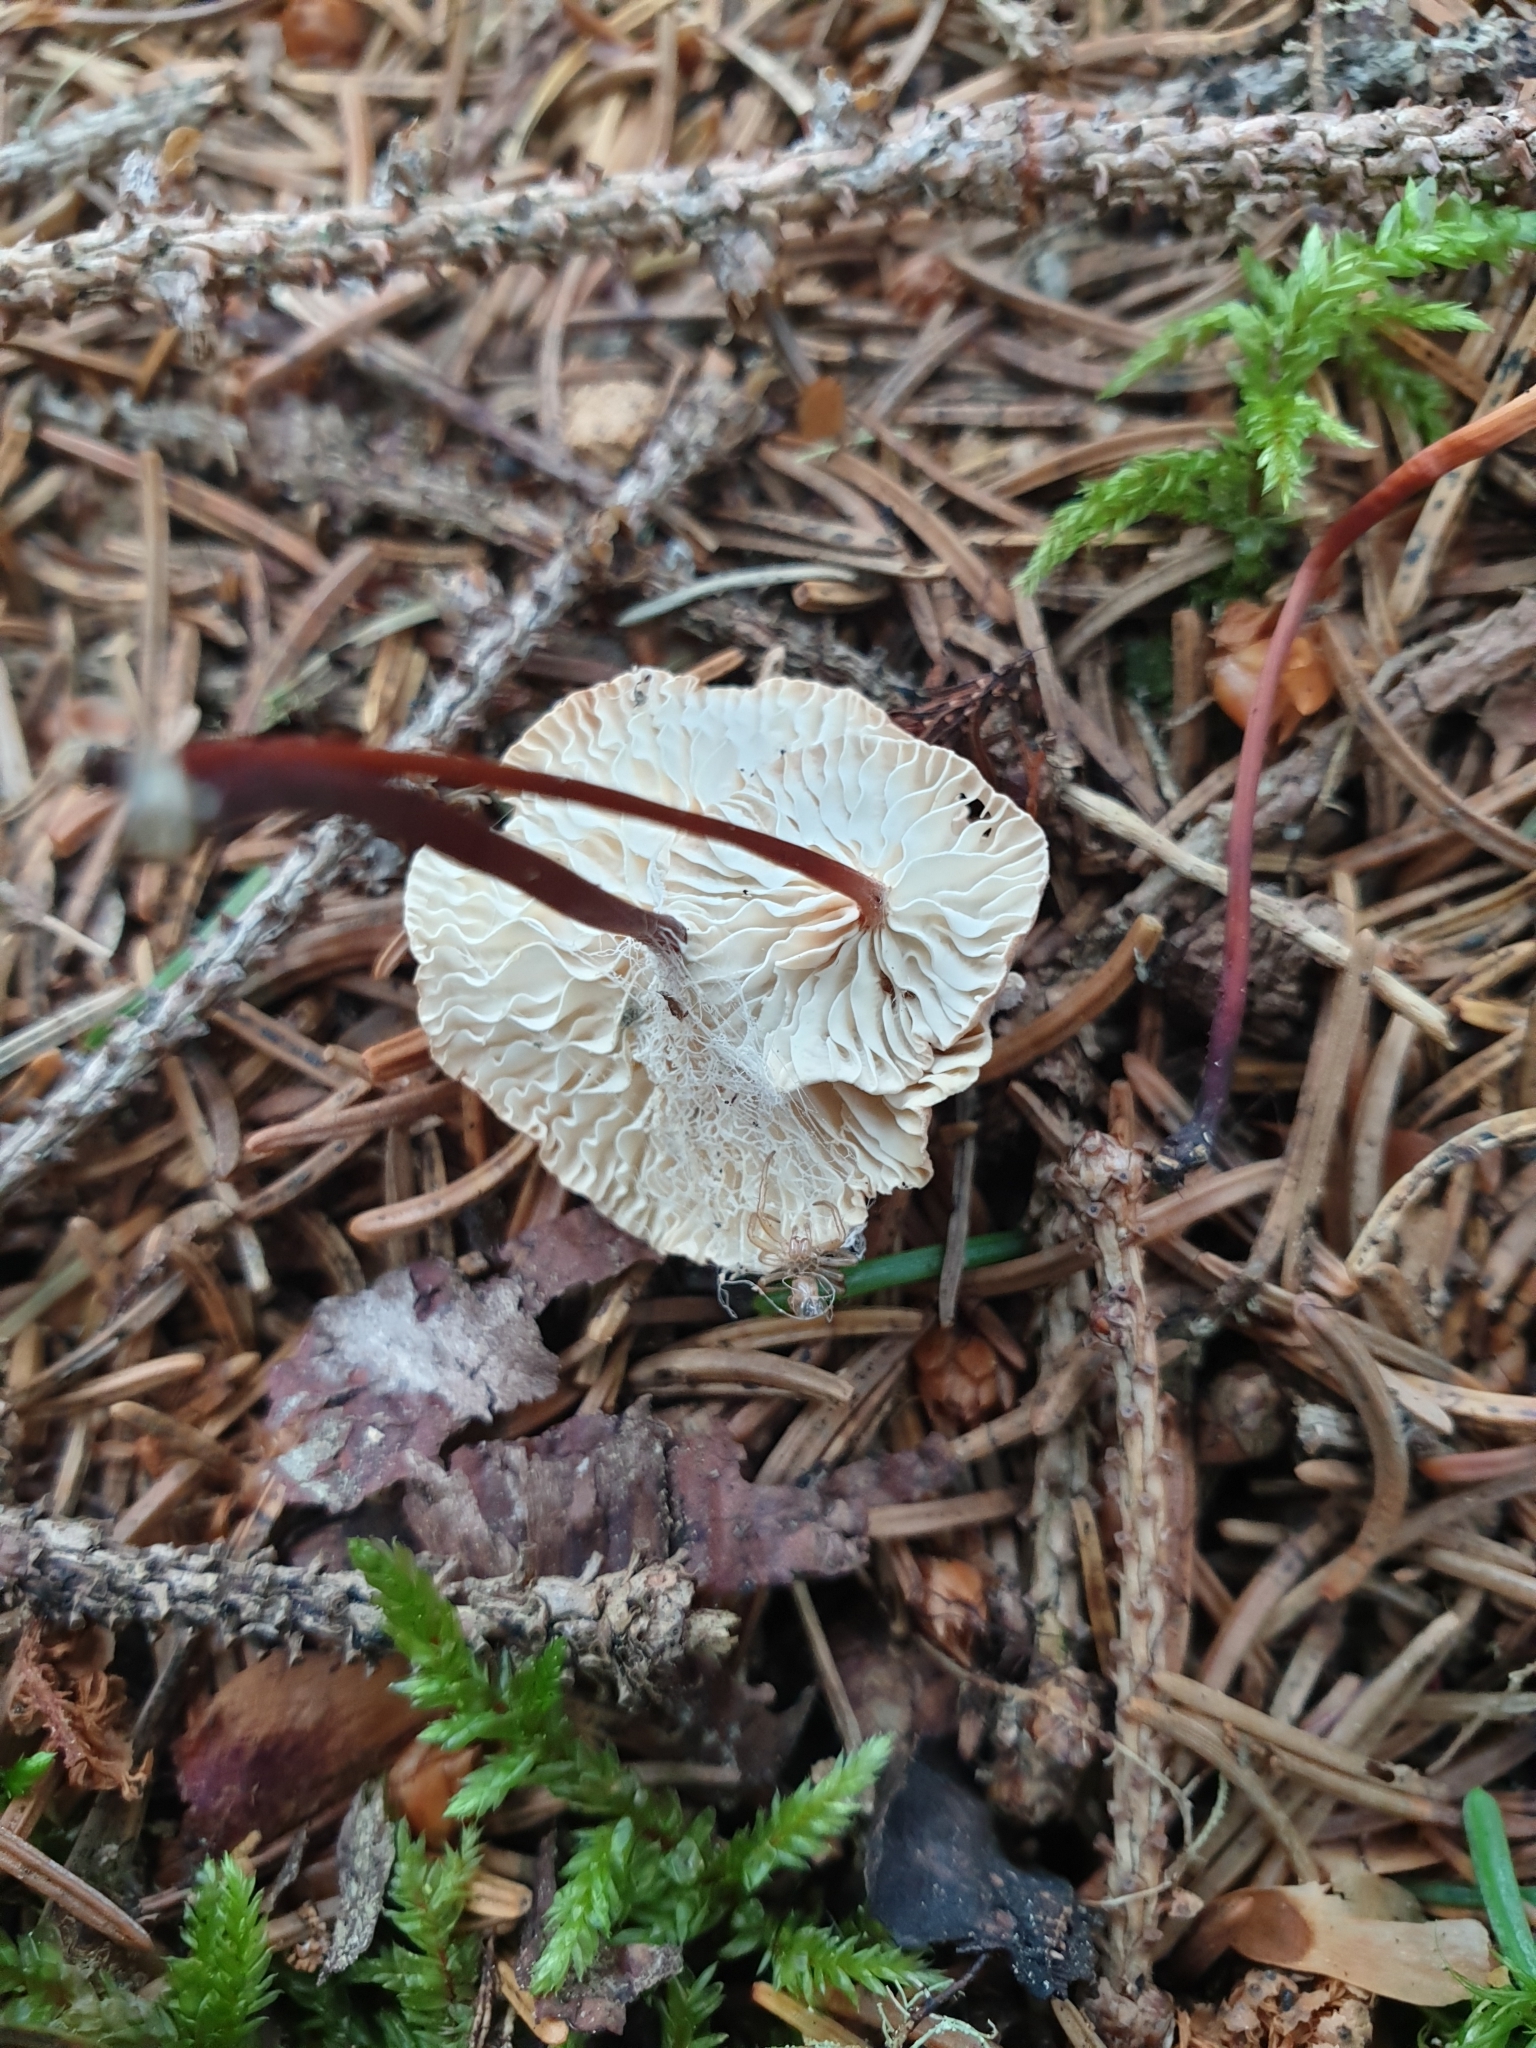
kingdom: Fungi
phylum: Basidiomycota
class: Agaricomycetes
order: Agaricales
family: Omphalotaceae
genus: Mycetinis
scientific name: Mycetinis scorodonius
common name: Vampires bane
